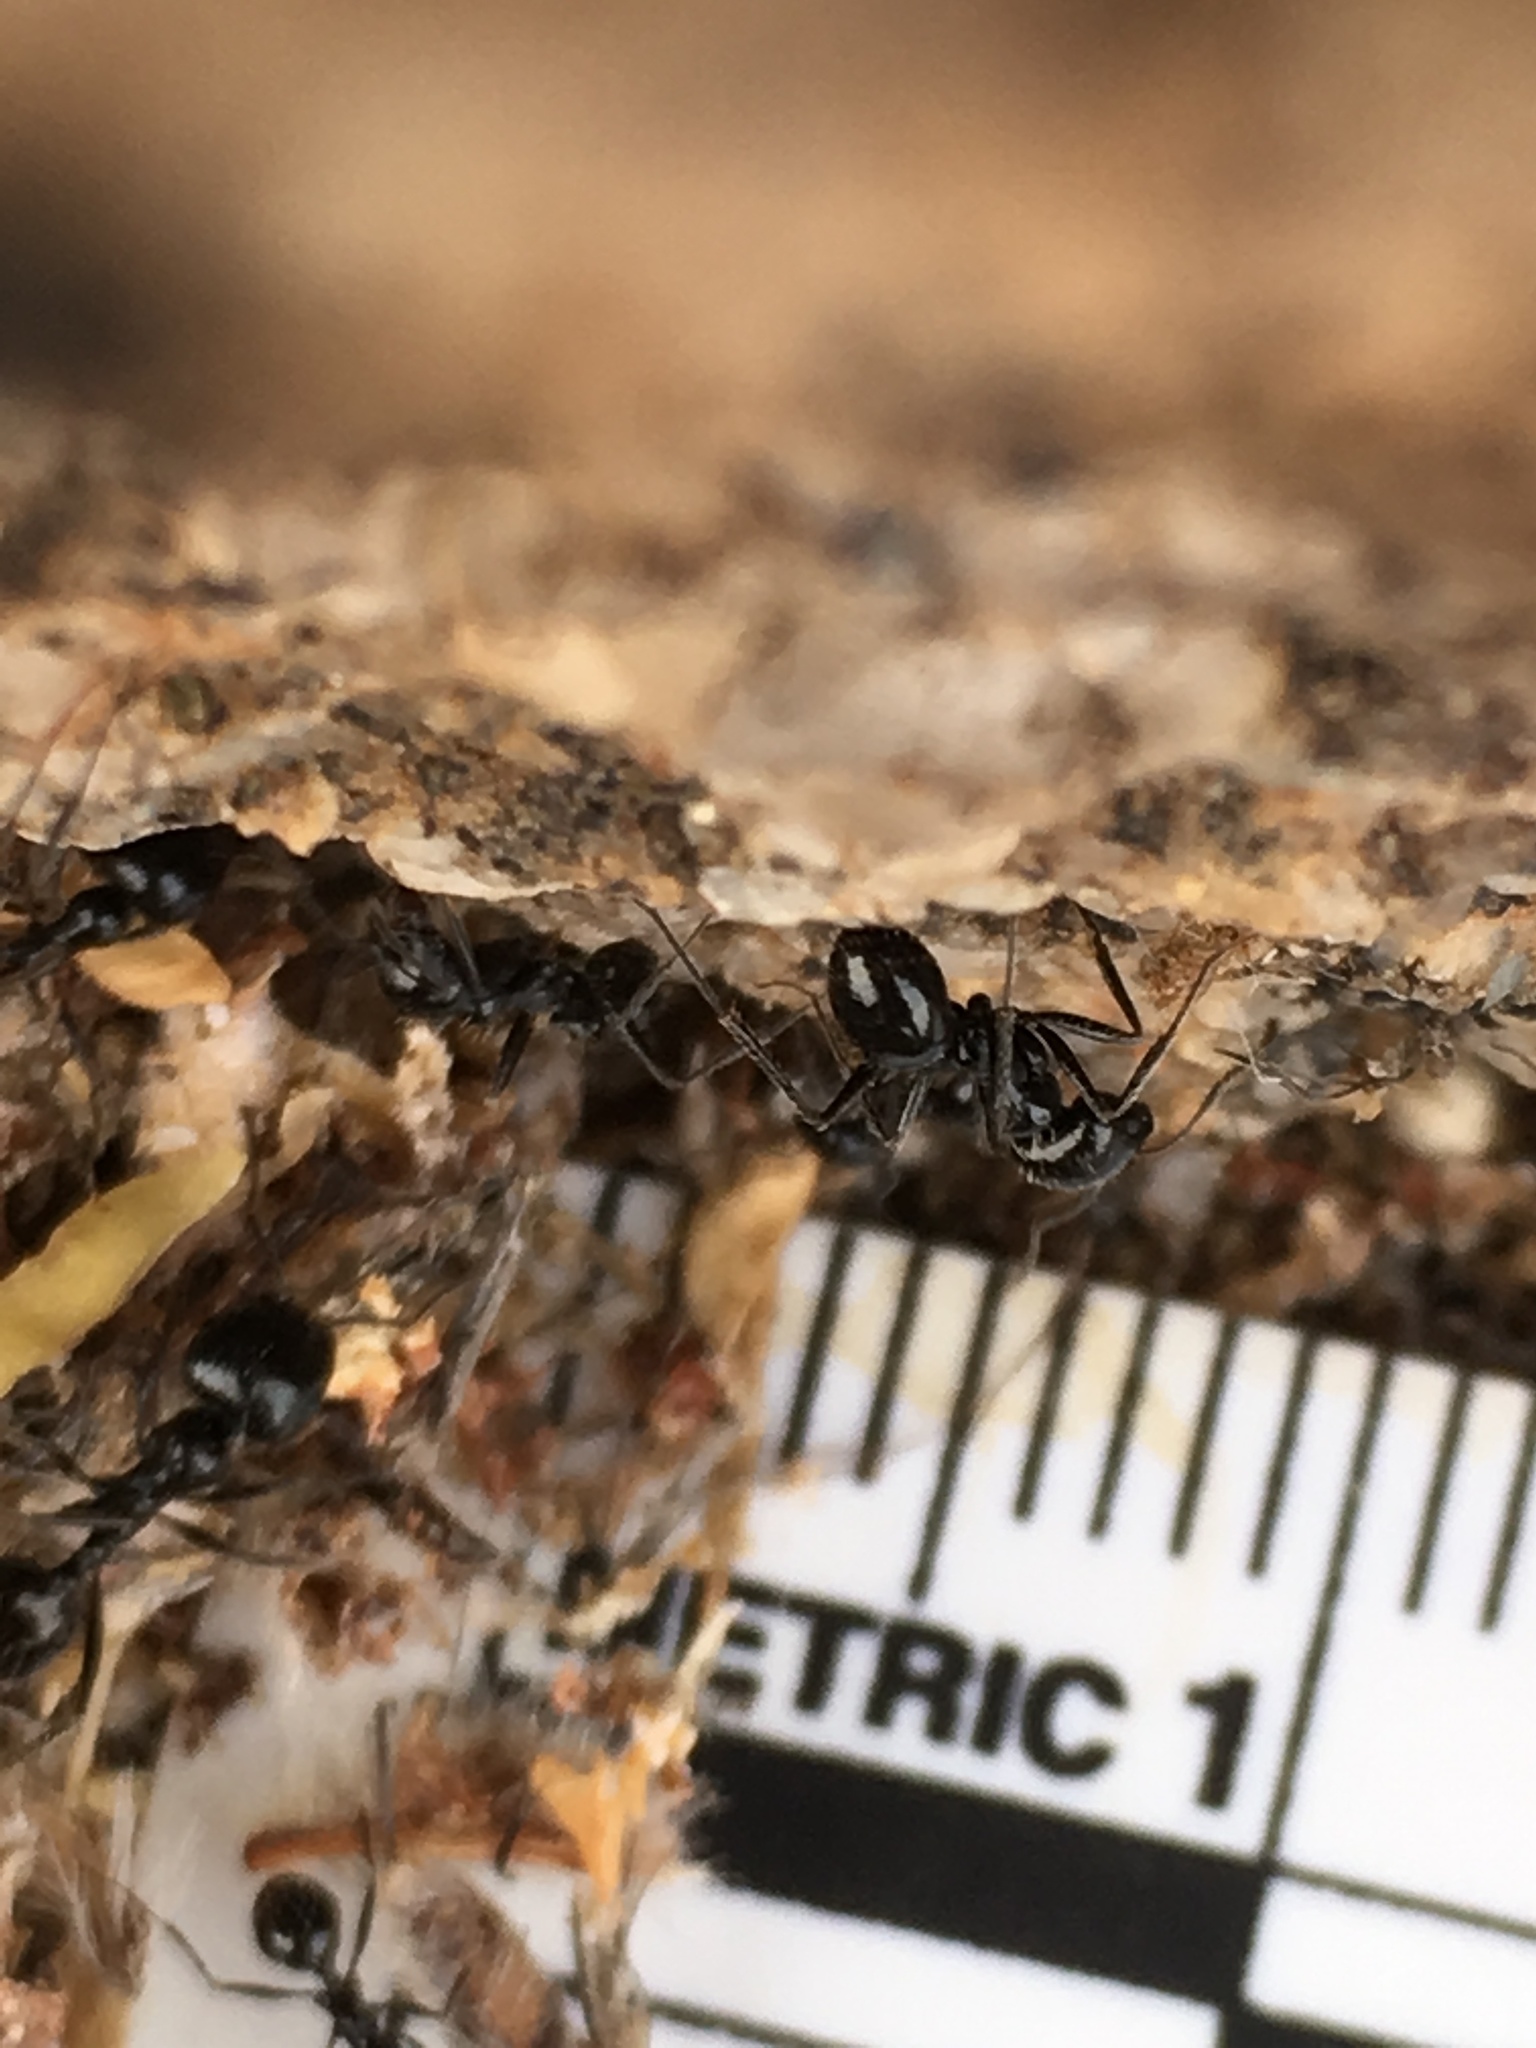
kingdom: Animalia
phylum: Arthropoda
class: Insecta
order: Hymenoptera
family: Formicidae
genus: Messor
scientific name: Messor pergandei
